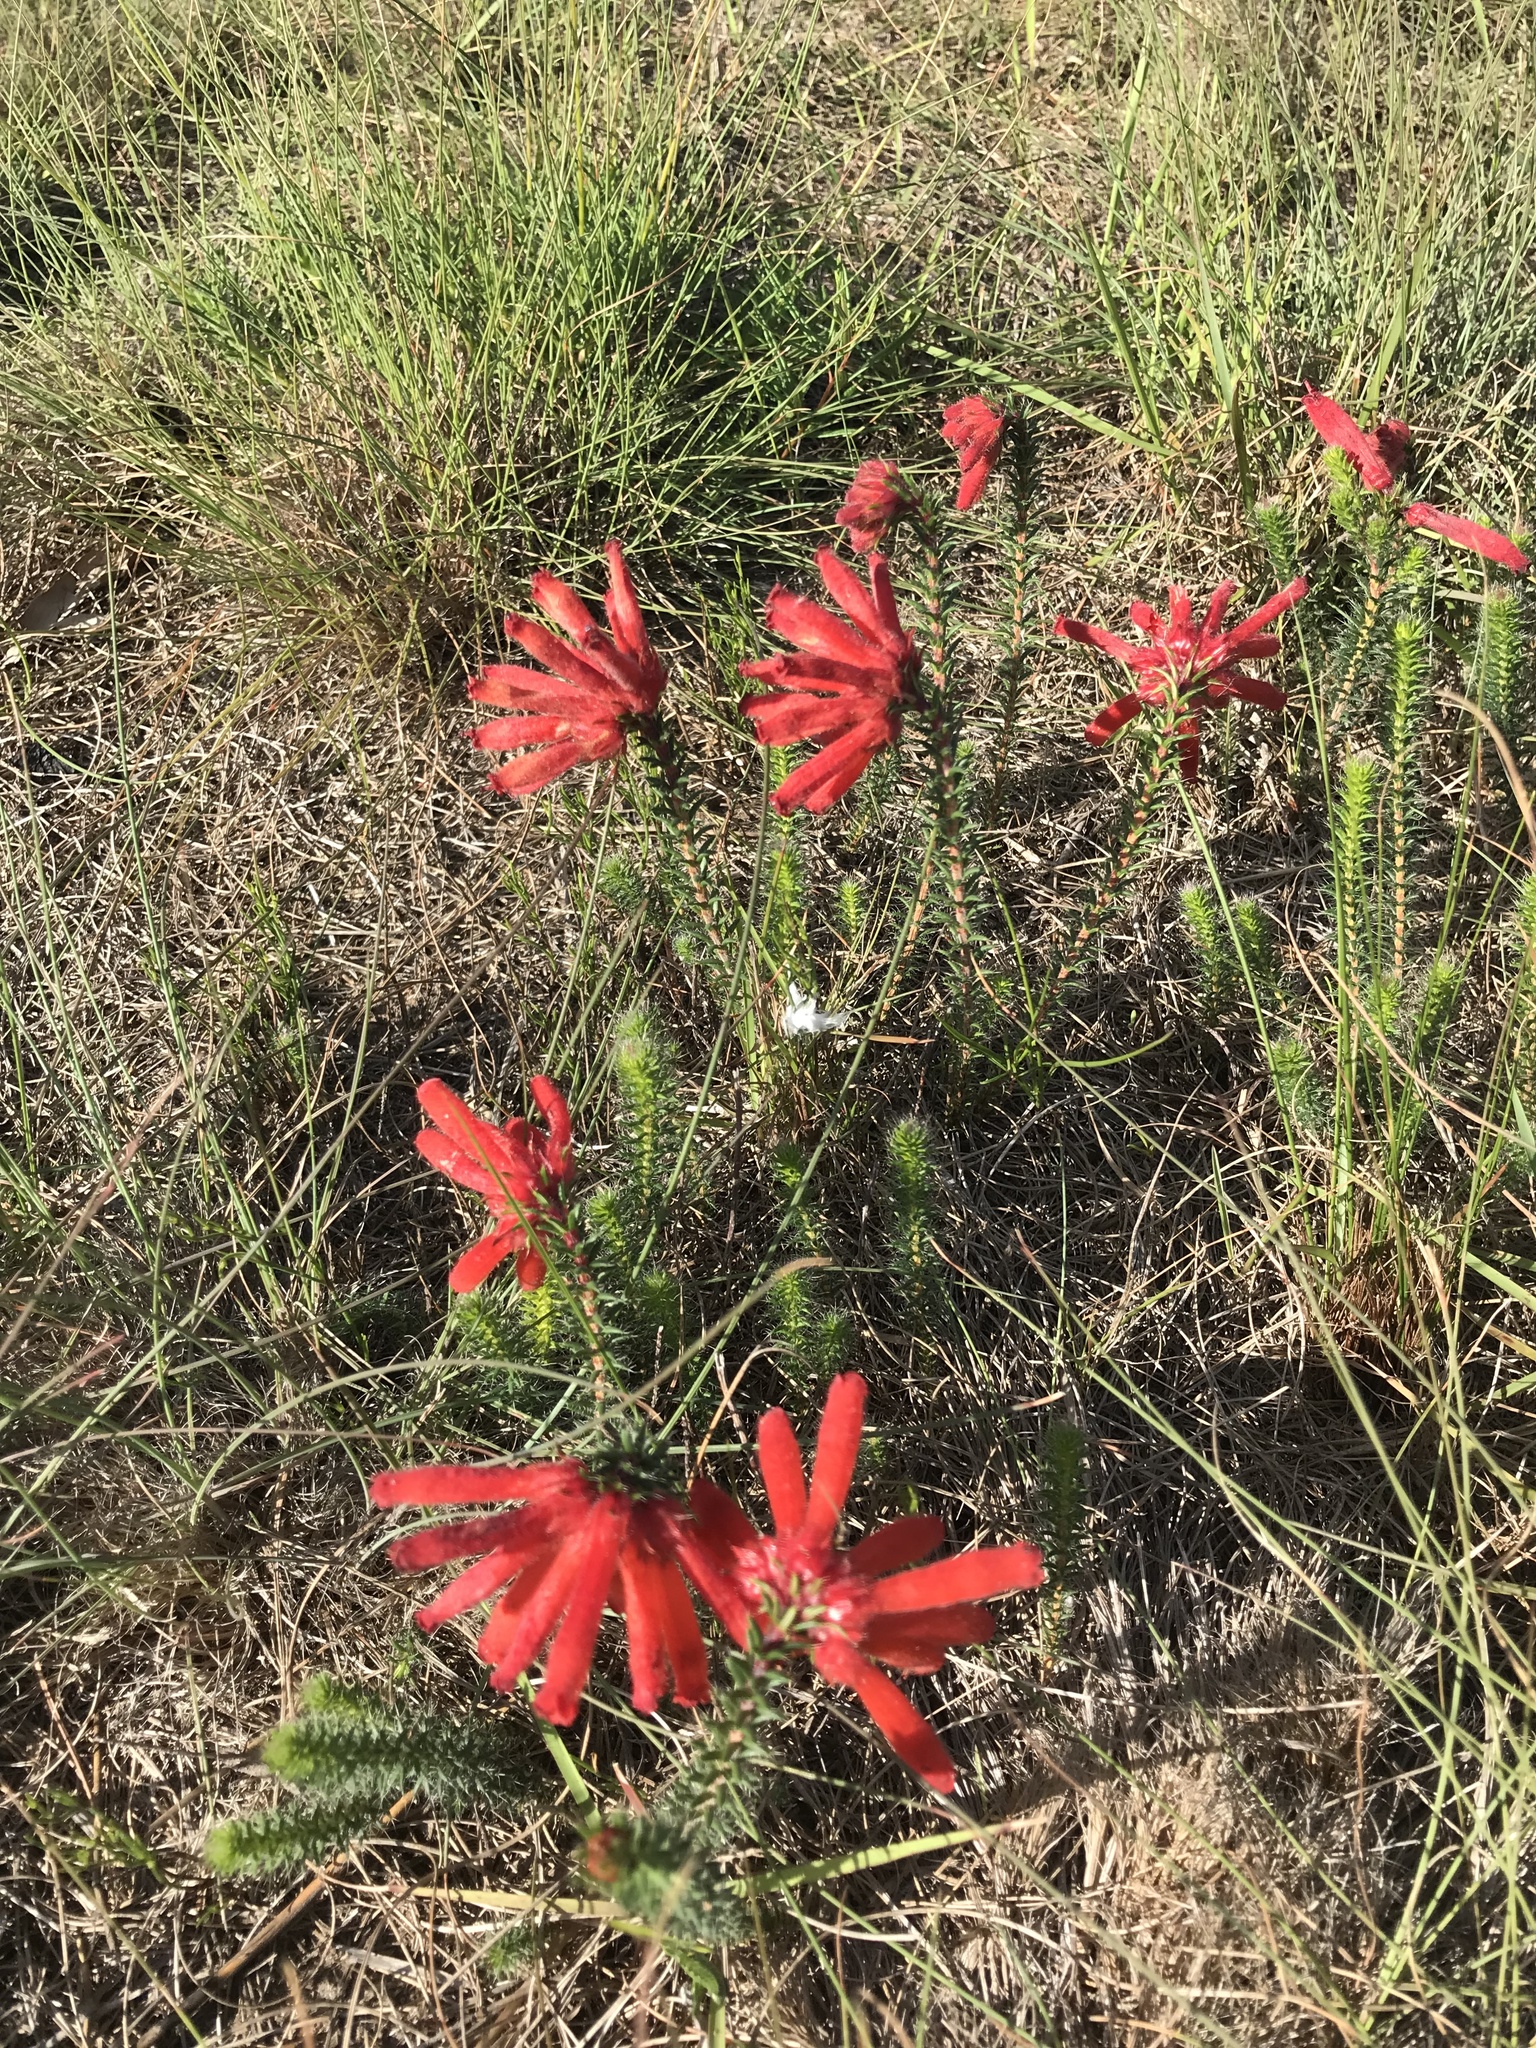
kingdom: Plantae
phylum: Tracheophyta
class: Magnoliopsida
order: Ericales
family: Ericaceae
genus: Erica
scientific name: Erica cerinthoides
